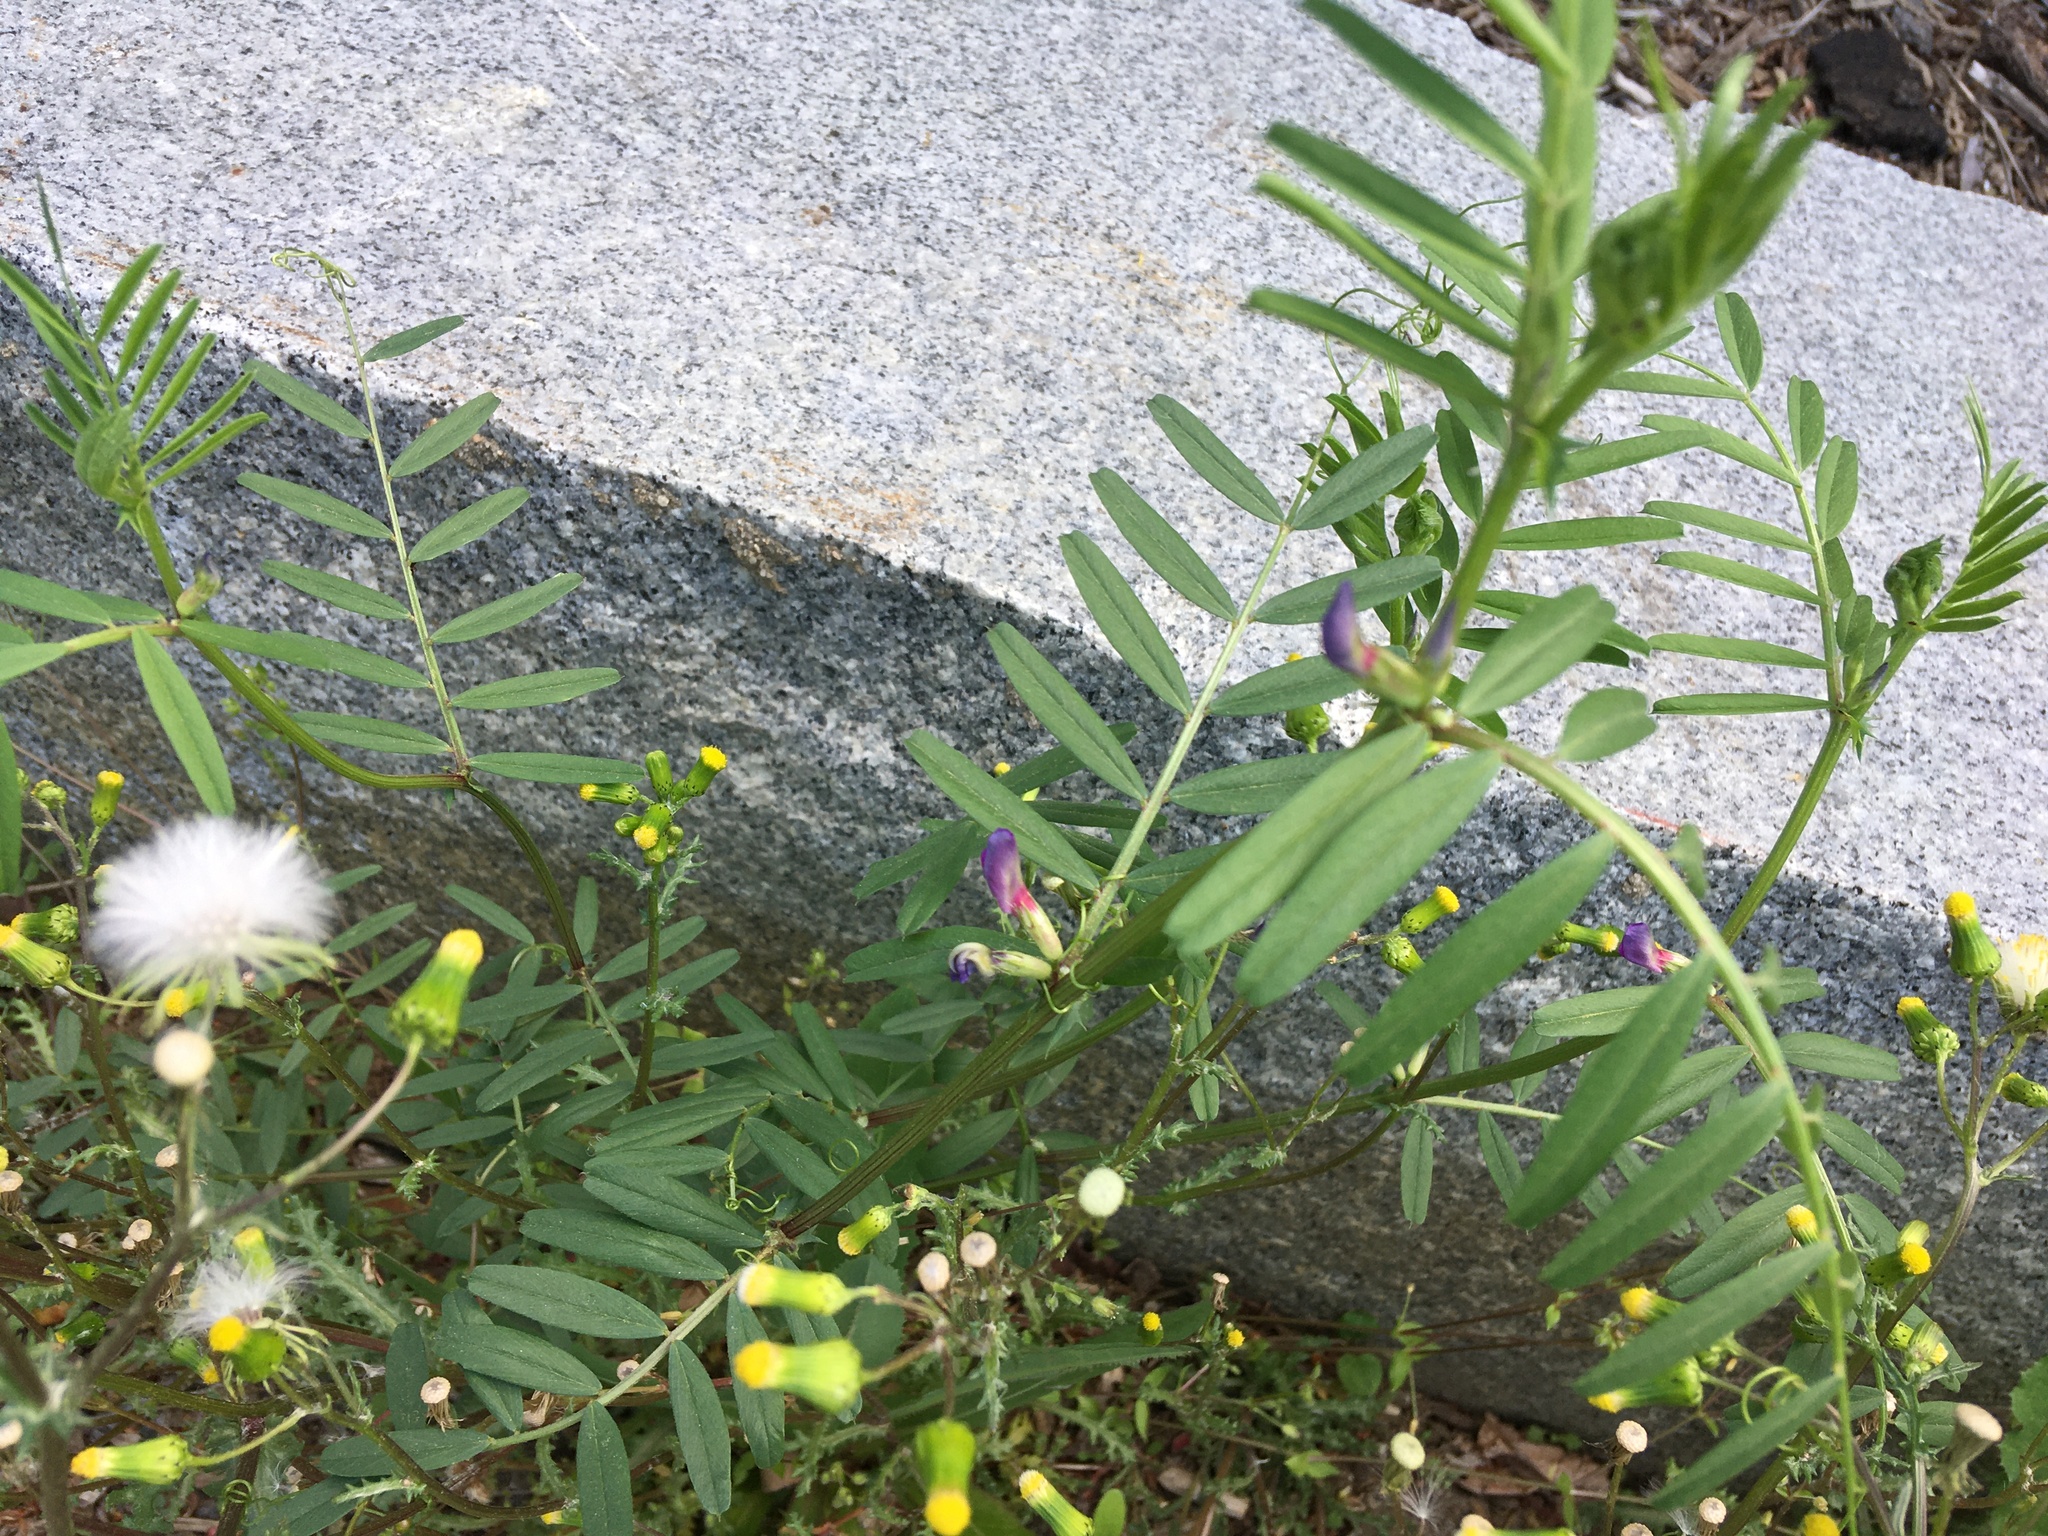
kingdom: Plantae
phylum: Tracheophyta
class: Magnoliopsida
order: Fabales
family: Fabaceae
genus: Vicia
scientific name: Vicia sativa
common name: Garden vetch
